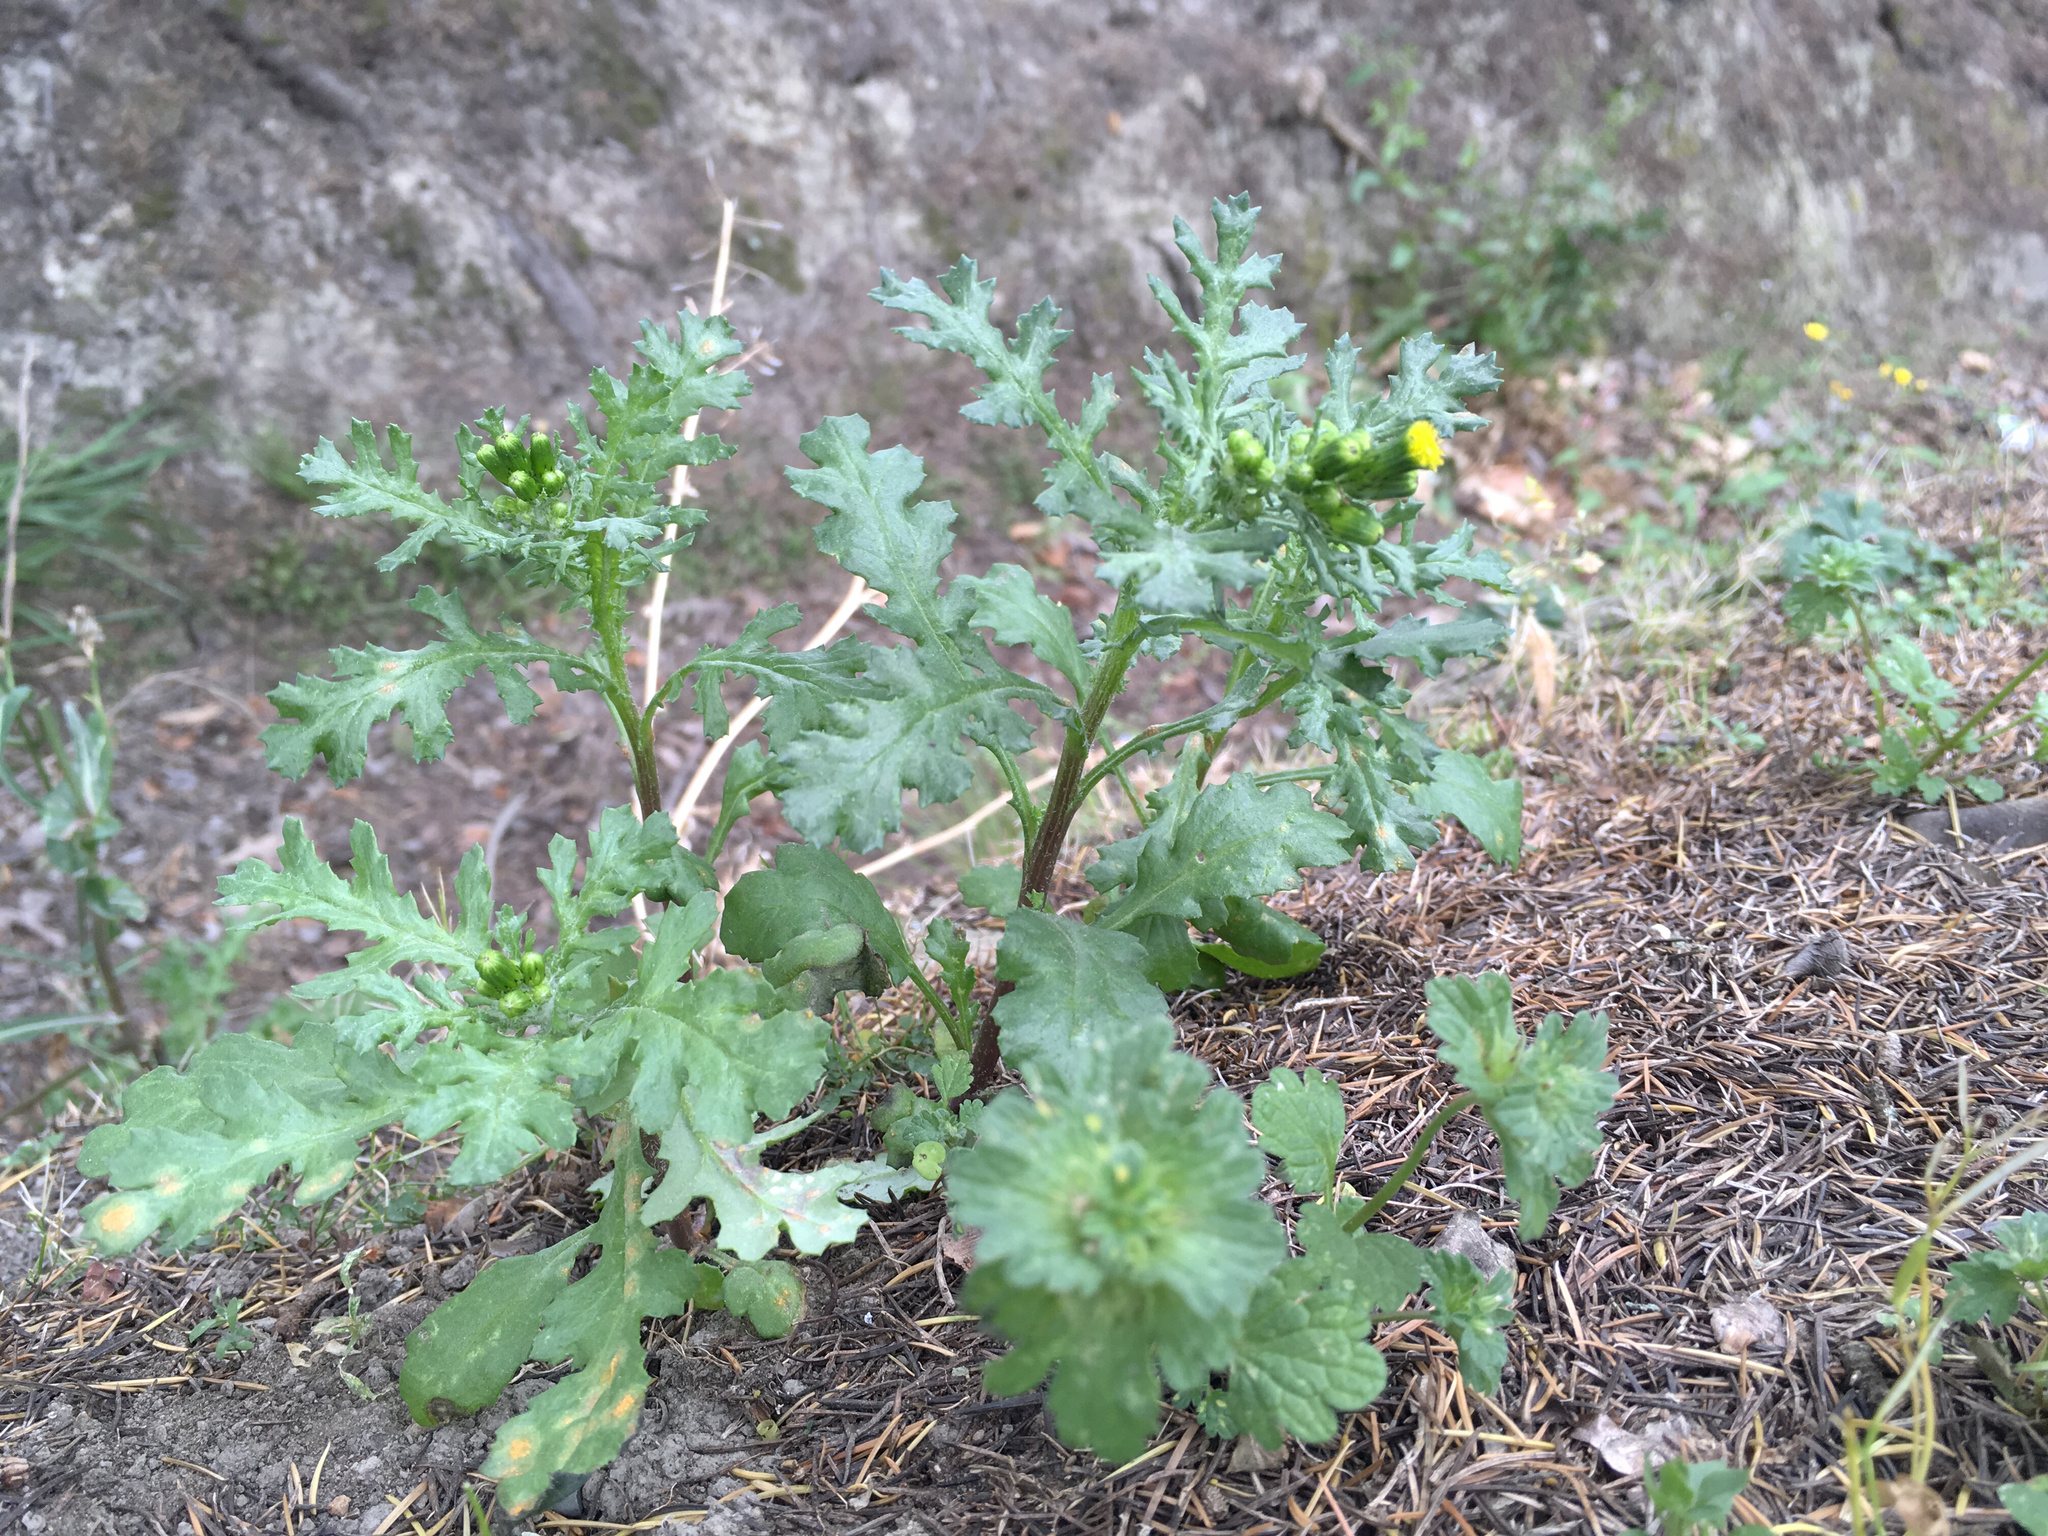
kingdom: Plantae
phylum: Tracheophyta
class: Magnoliopsida
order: Asterales
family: Asteraceae
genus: Senecio
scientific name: Senecio vulgaris
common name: Old-man-in-the-spring
